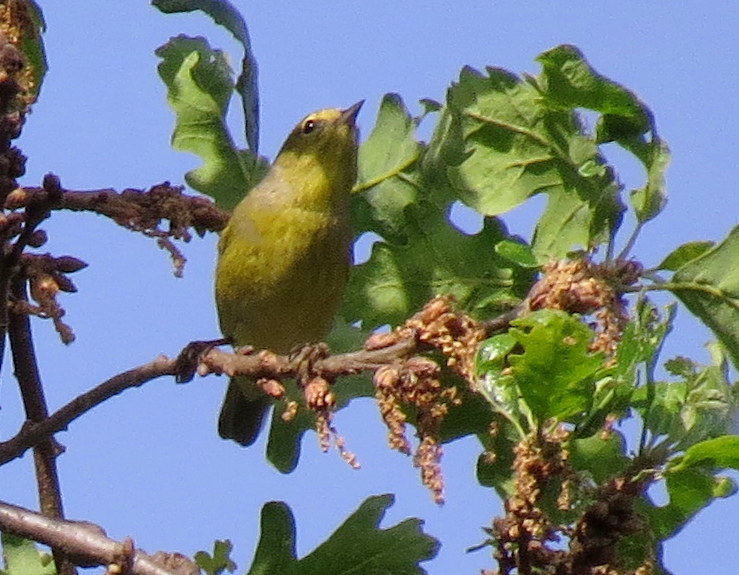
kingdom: Animalia
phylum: Chordata
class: Aves
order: Passeriformes
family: Parulidae
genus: Leiothlypis
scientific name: Leiothlypis celata
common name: Orange-crowned warbler
